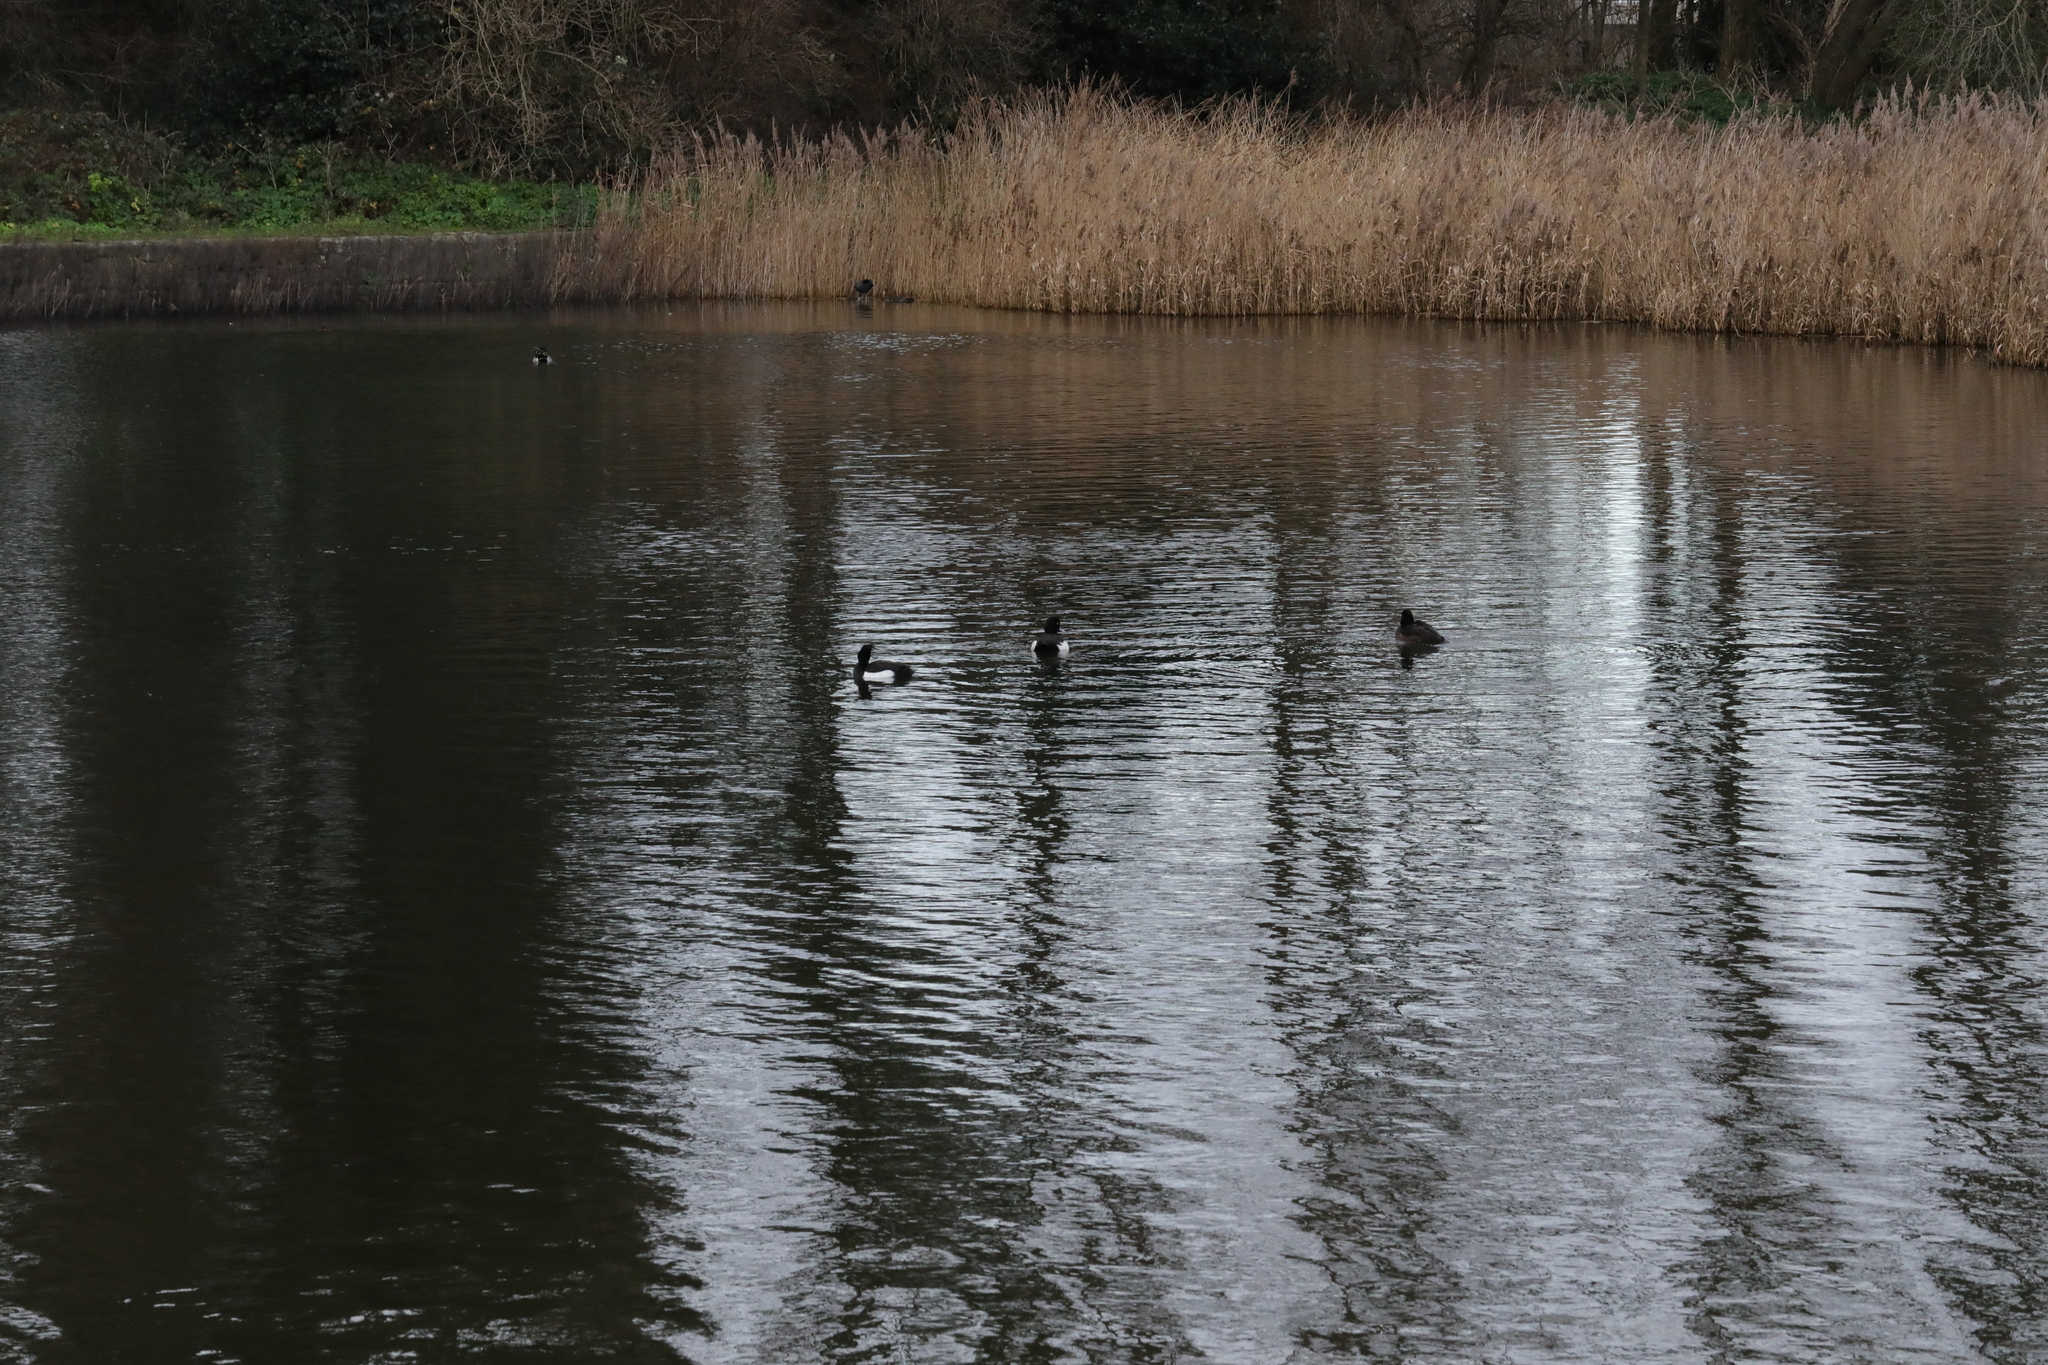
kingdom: Animalia
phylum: Chordata
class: Aves
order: Anseriformes
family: Anatidae
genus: Aythya
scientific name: Aythya fuligula
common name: Tufted duck
